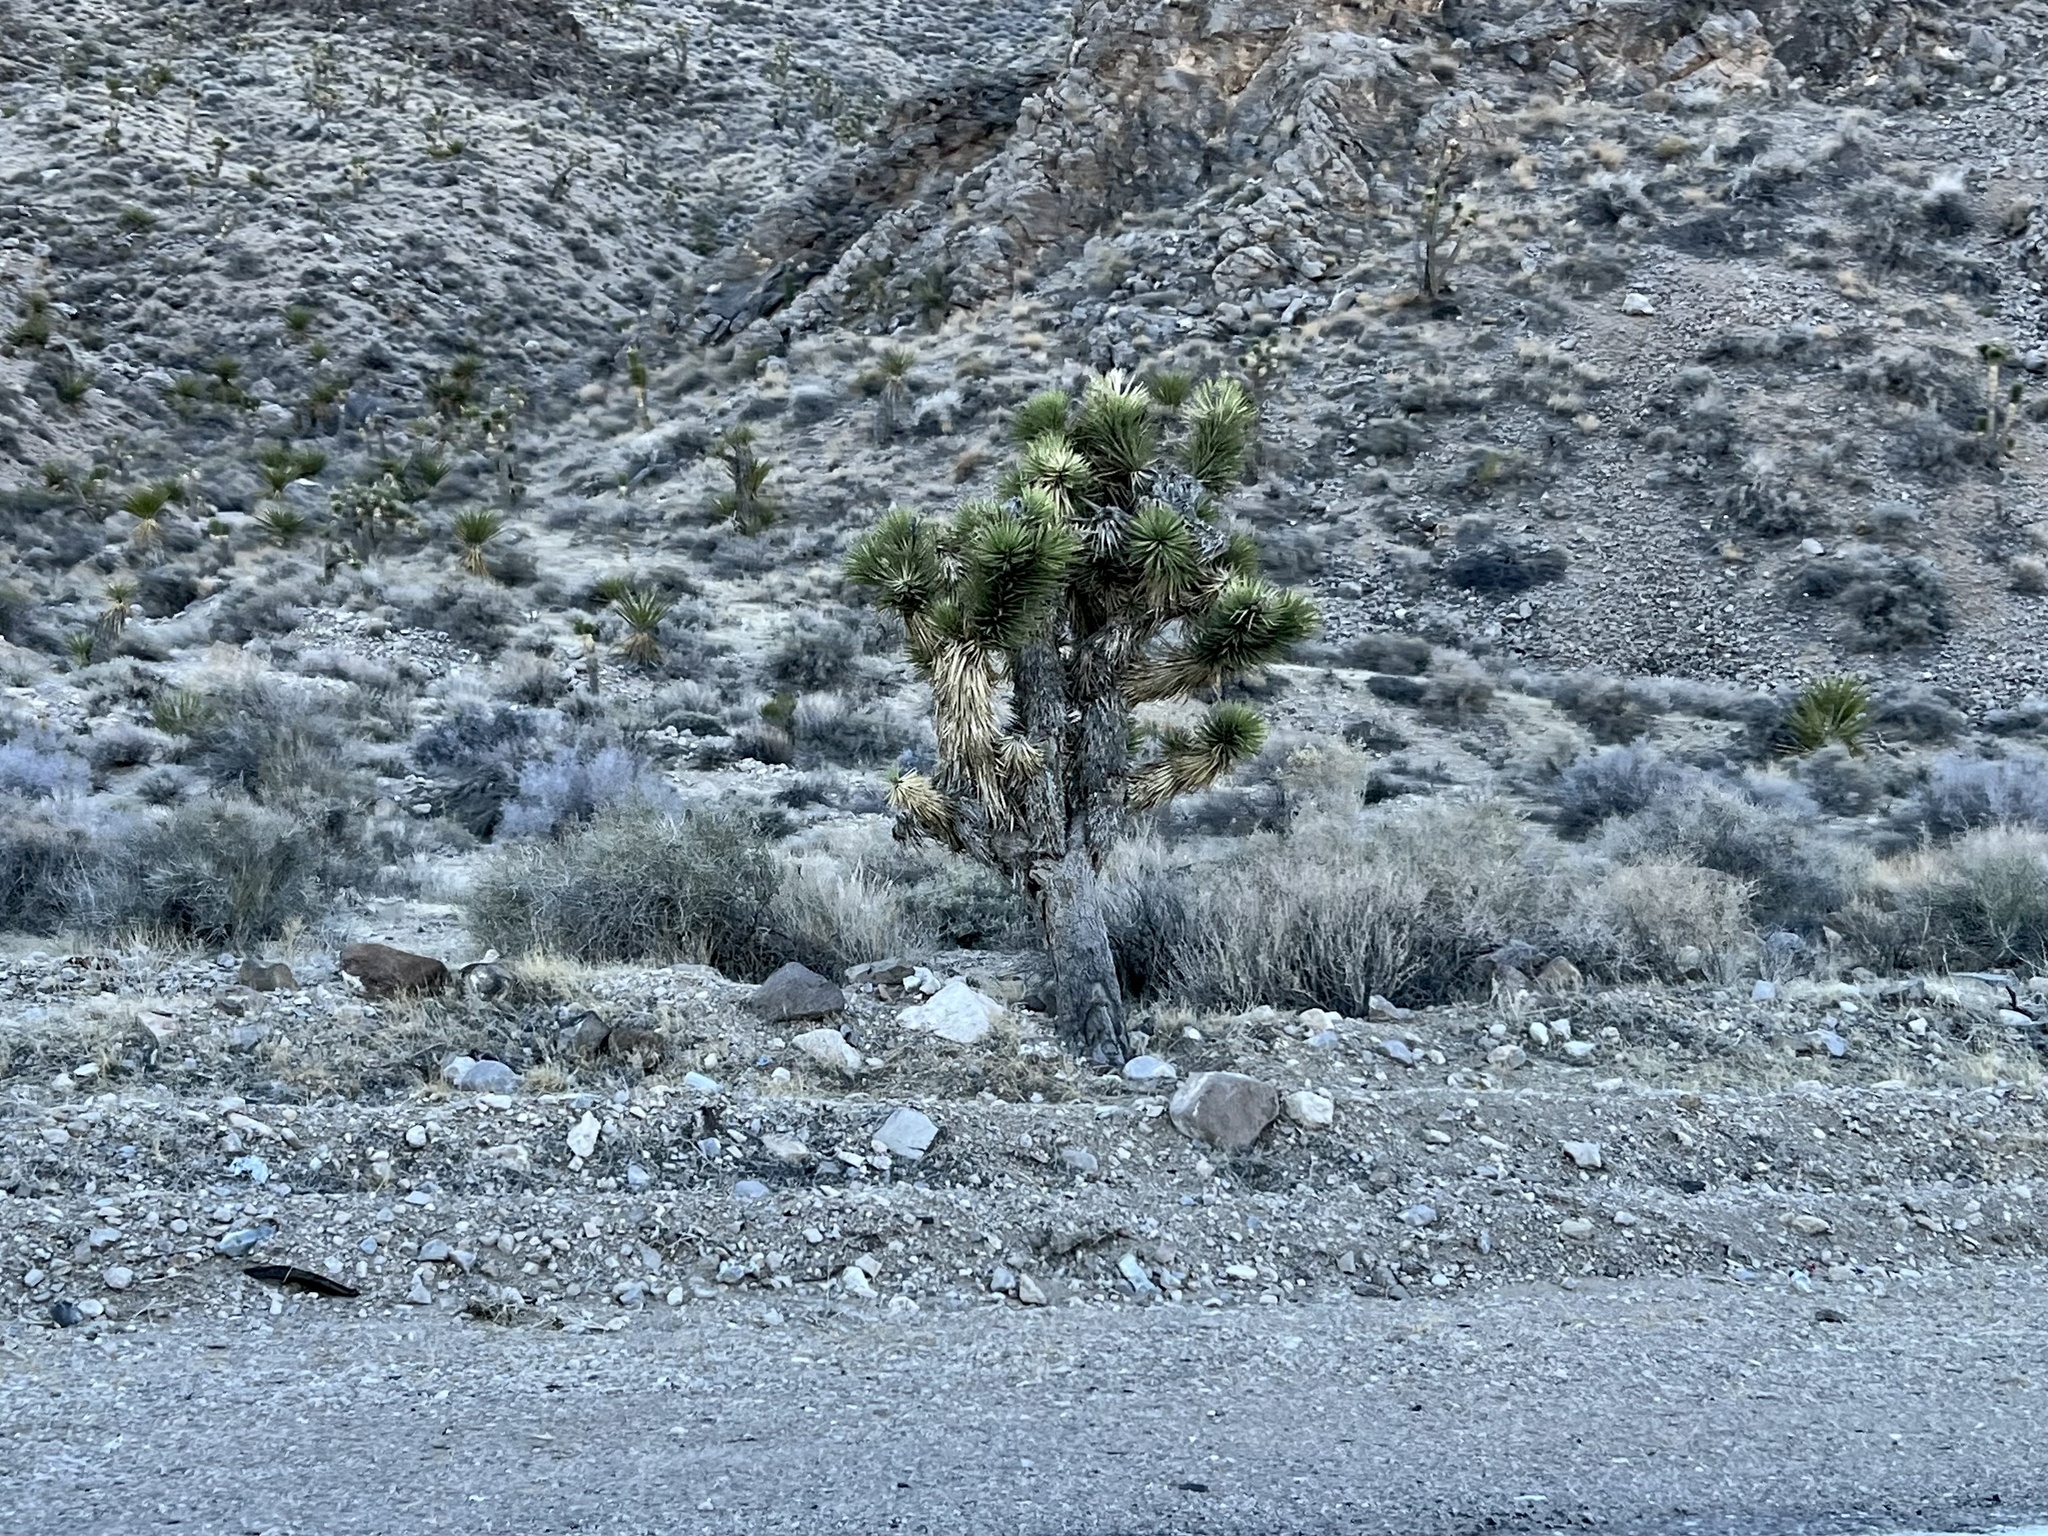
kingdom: Plantae
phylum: Tracheophyta
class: Liliopsida
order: Asparagales
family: Asparagaceae
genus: Yucca
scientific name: Yucca brevifolia
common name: Joshua tree
